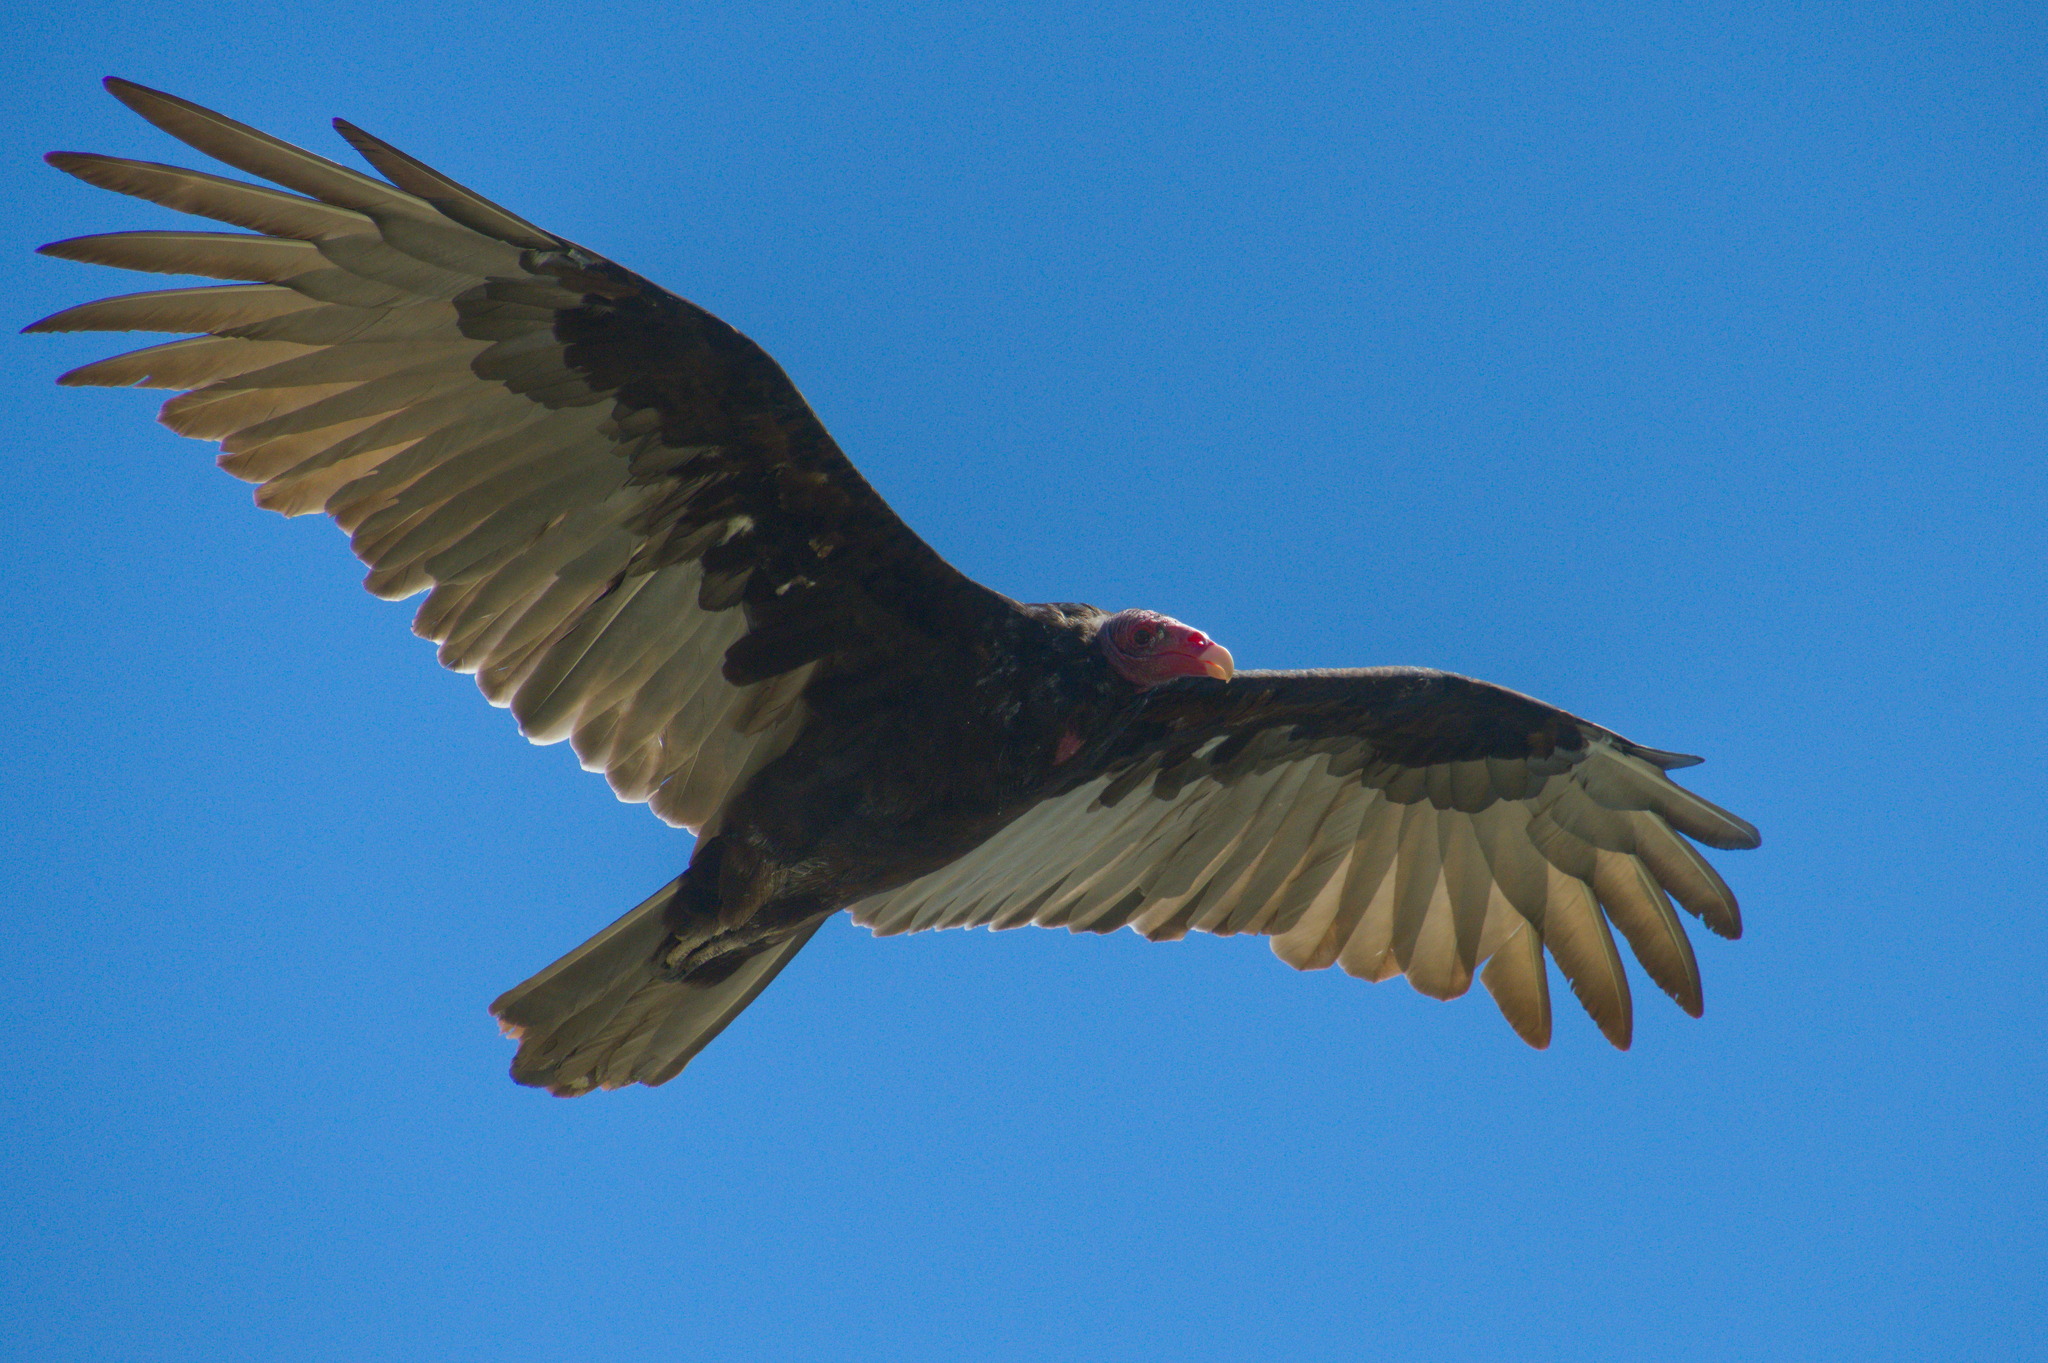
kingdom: Animalia
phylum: Chordata
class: Aves
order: Accipitriformes
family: Cathartidae
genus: Cathartes
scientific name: Cathartes aura
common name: Turkey vulture
